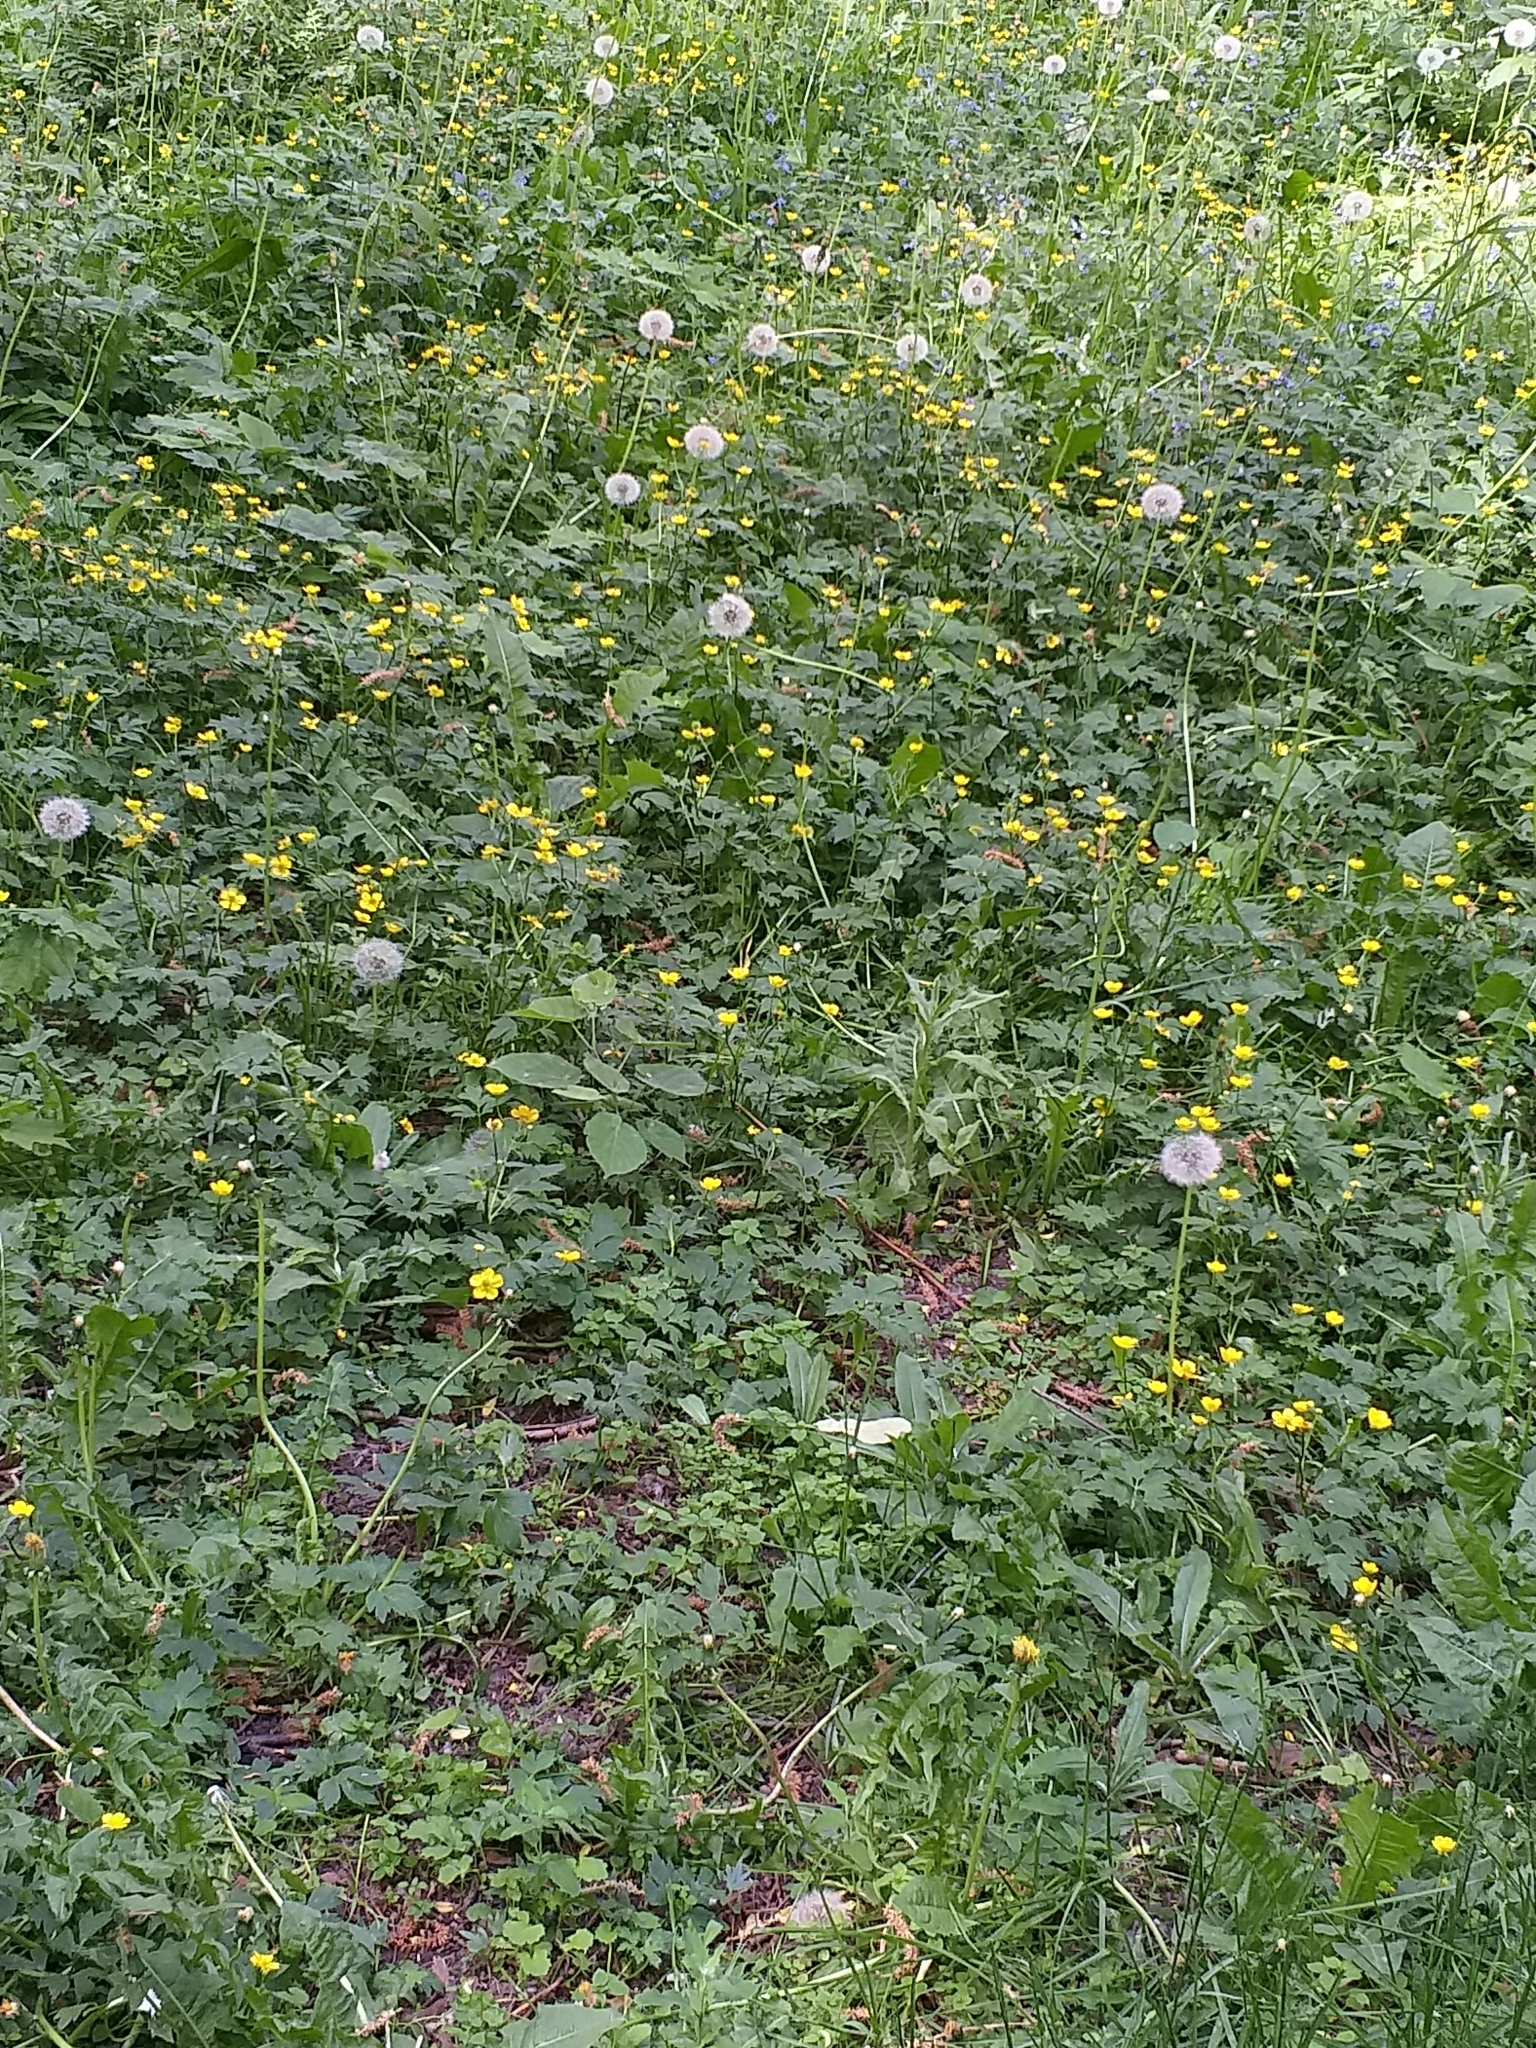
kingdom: Plantae
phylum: Tracheophyta
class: Magnoliopsida
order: Ranunculales
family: Ranunculaceae
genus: Ranunculus
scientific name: Ranunculus repens
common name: Creeping buttercup
